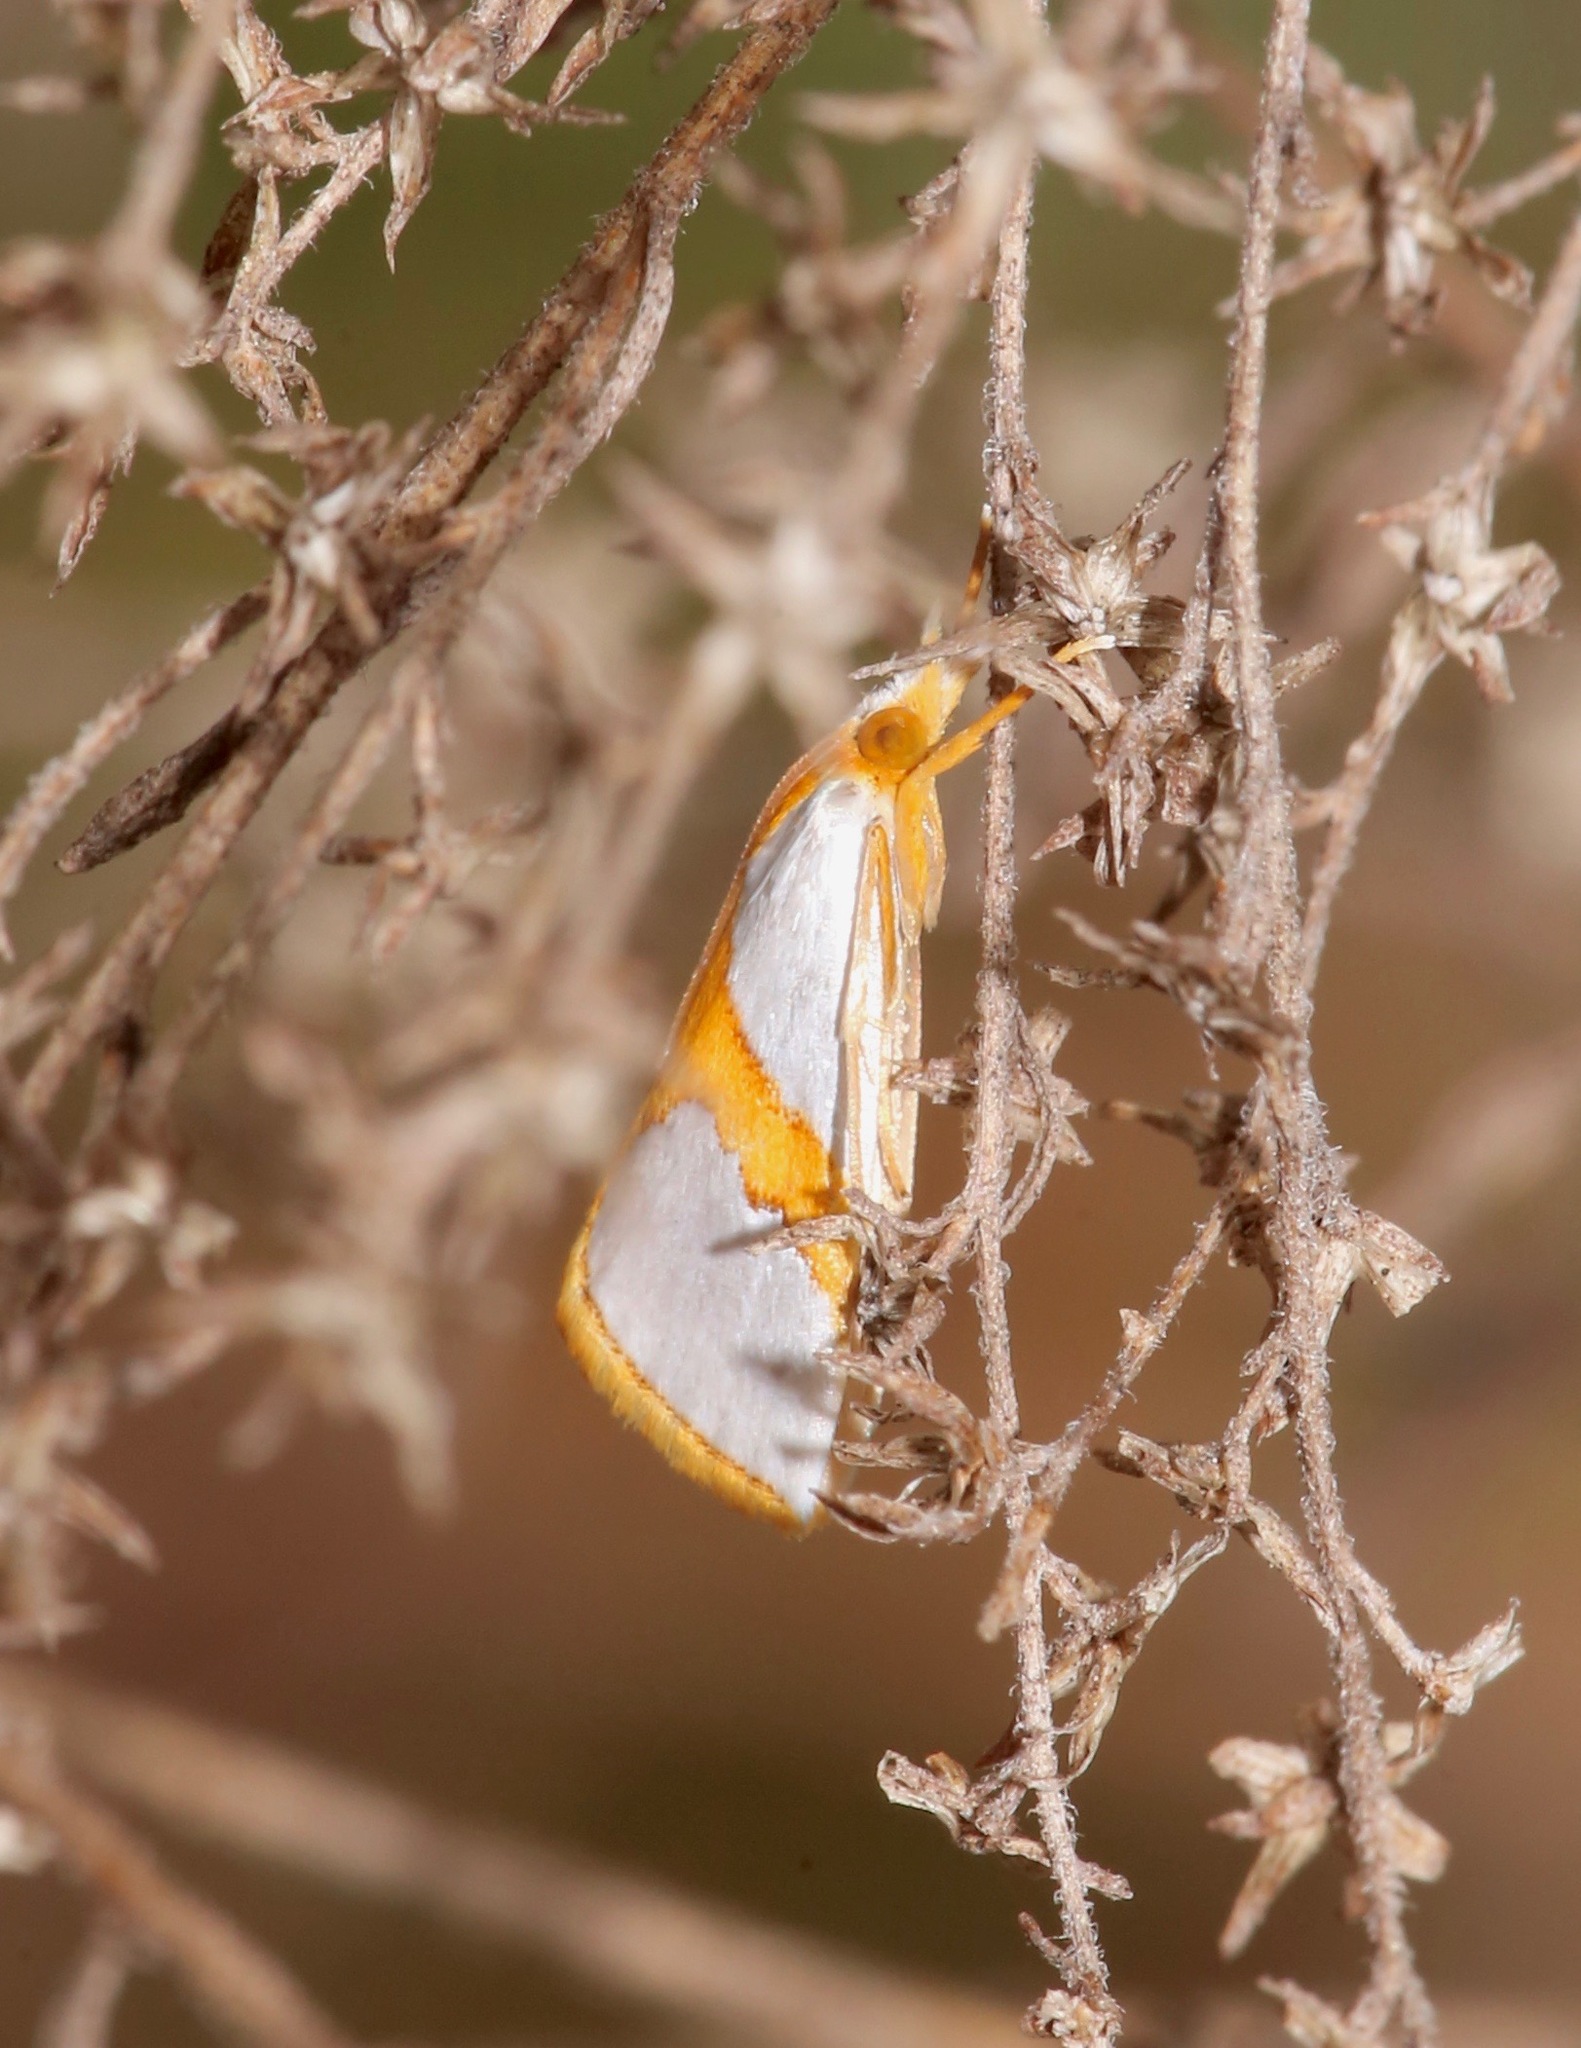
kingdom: Animalia
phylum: Arthropoda
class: Insecta
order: Lepidoptera
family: Crambidae
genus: Argyria
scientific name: Argyria auratella
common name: Curve-lined argyria moth
